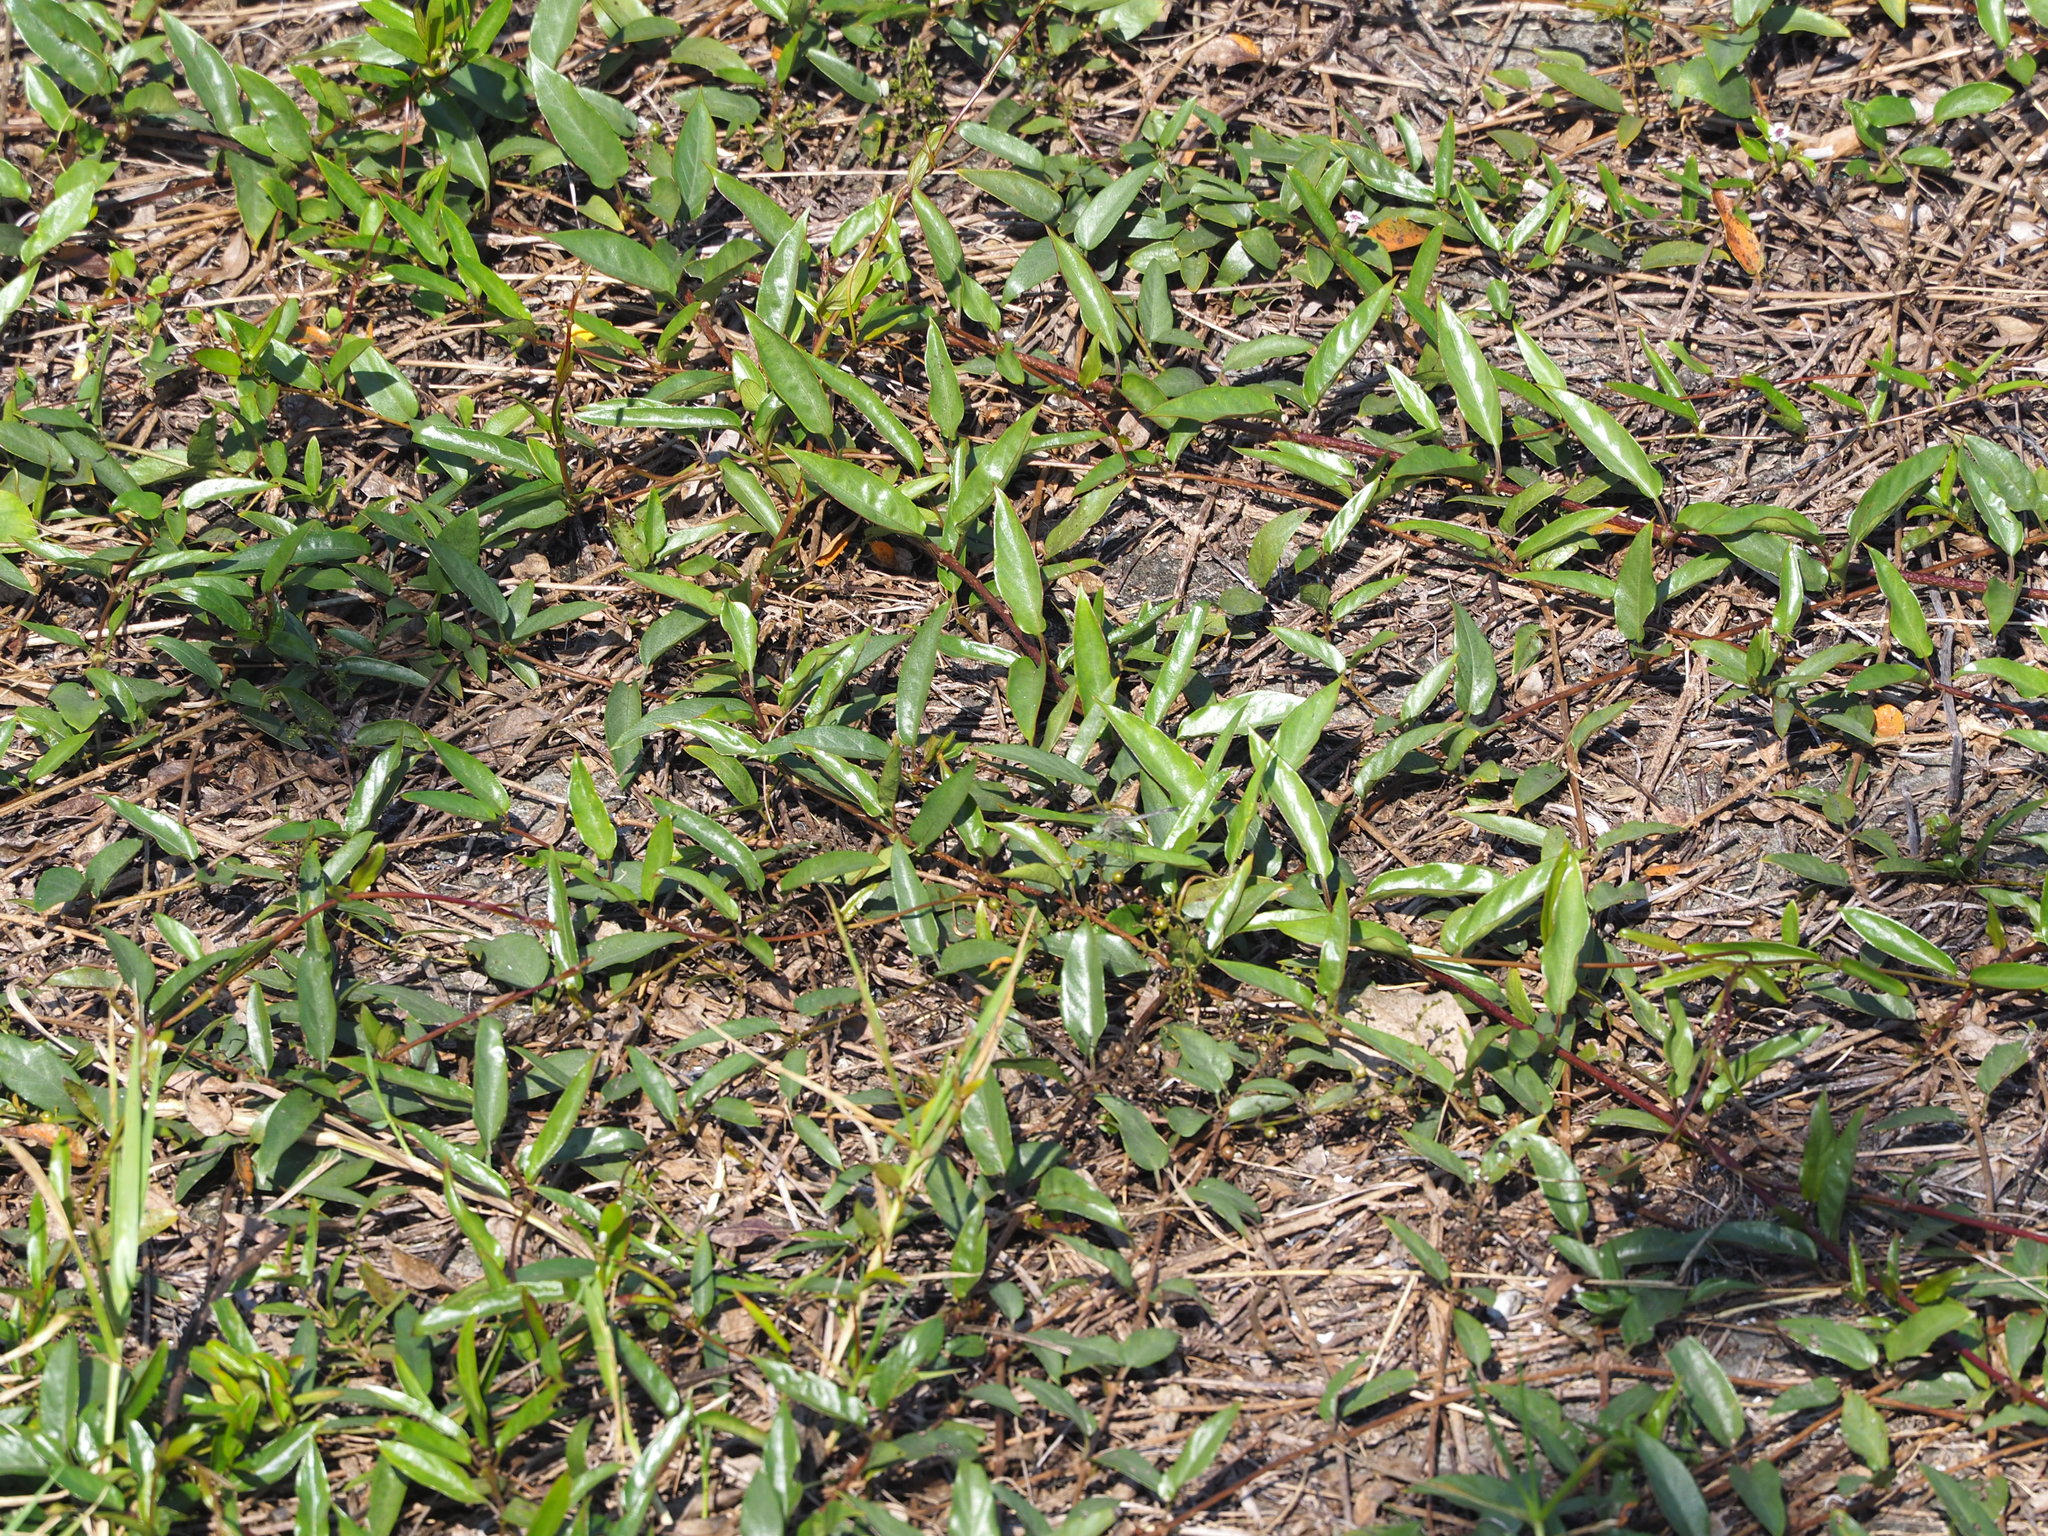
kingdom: Plantae
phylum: Tracheophyta
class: Magnoliopsida
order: Gentianales
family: Rubiaceae
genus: Paederia
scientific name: Paederia foetida
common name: Stinkvine
